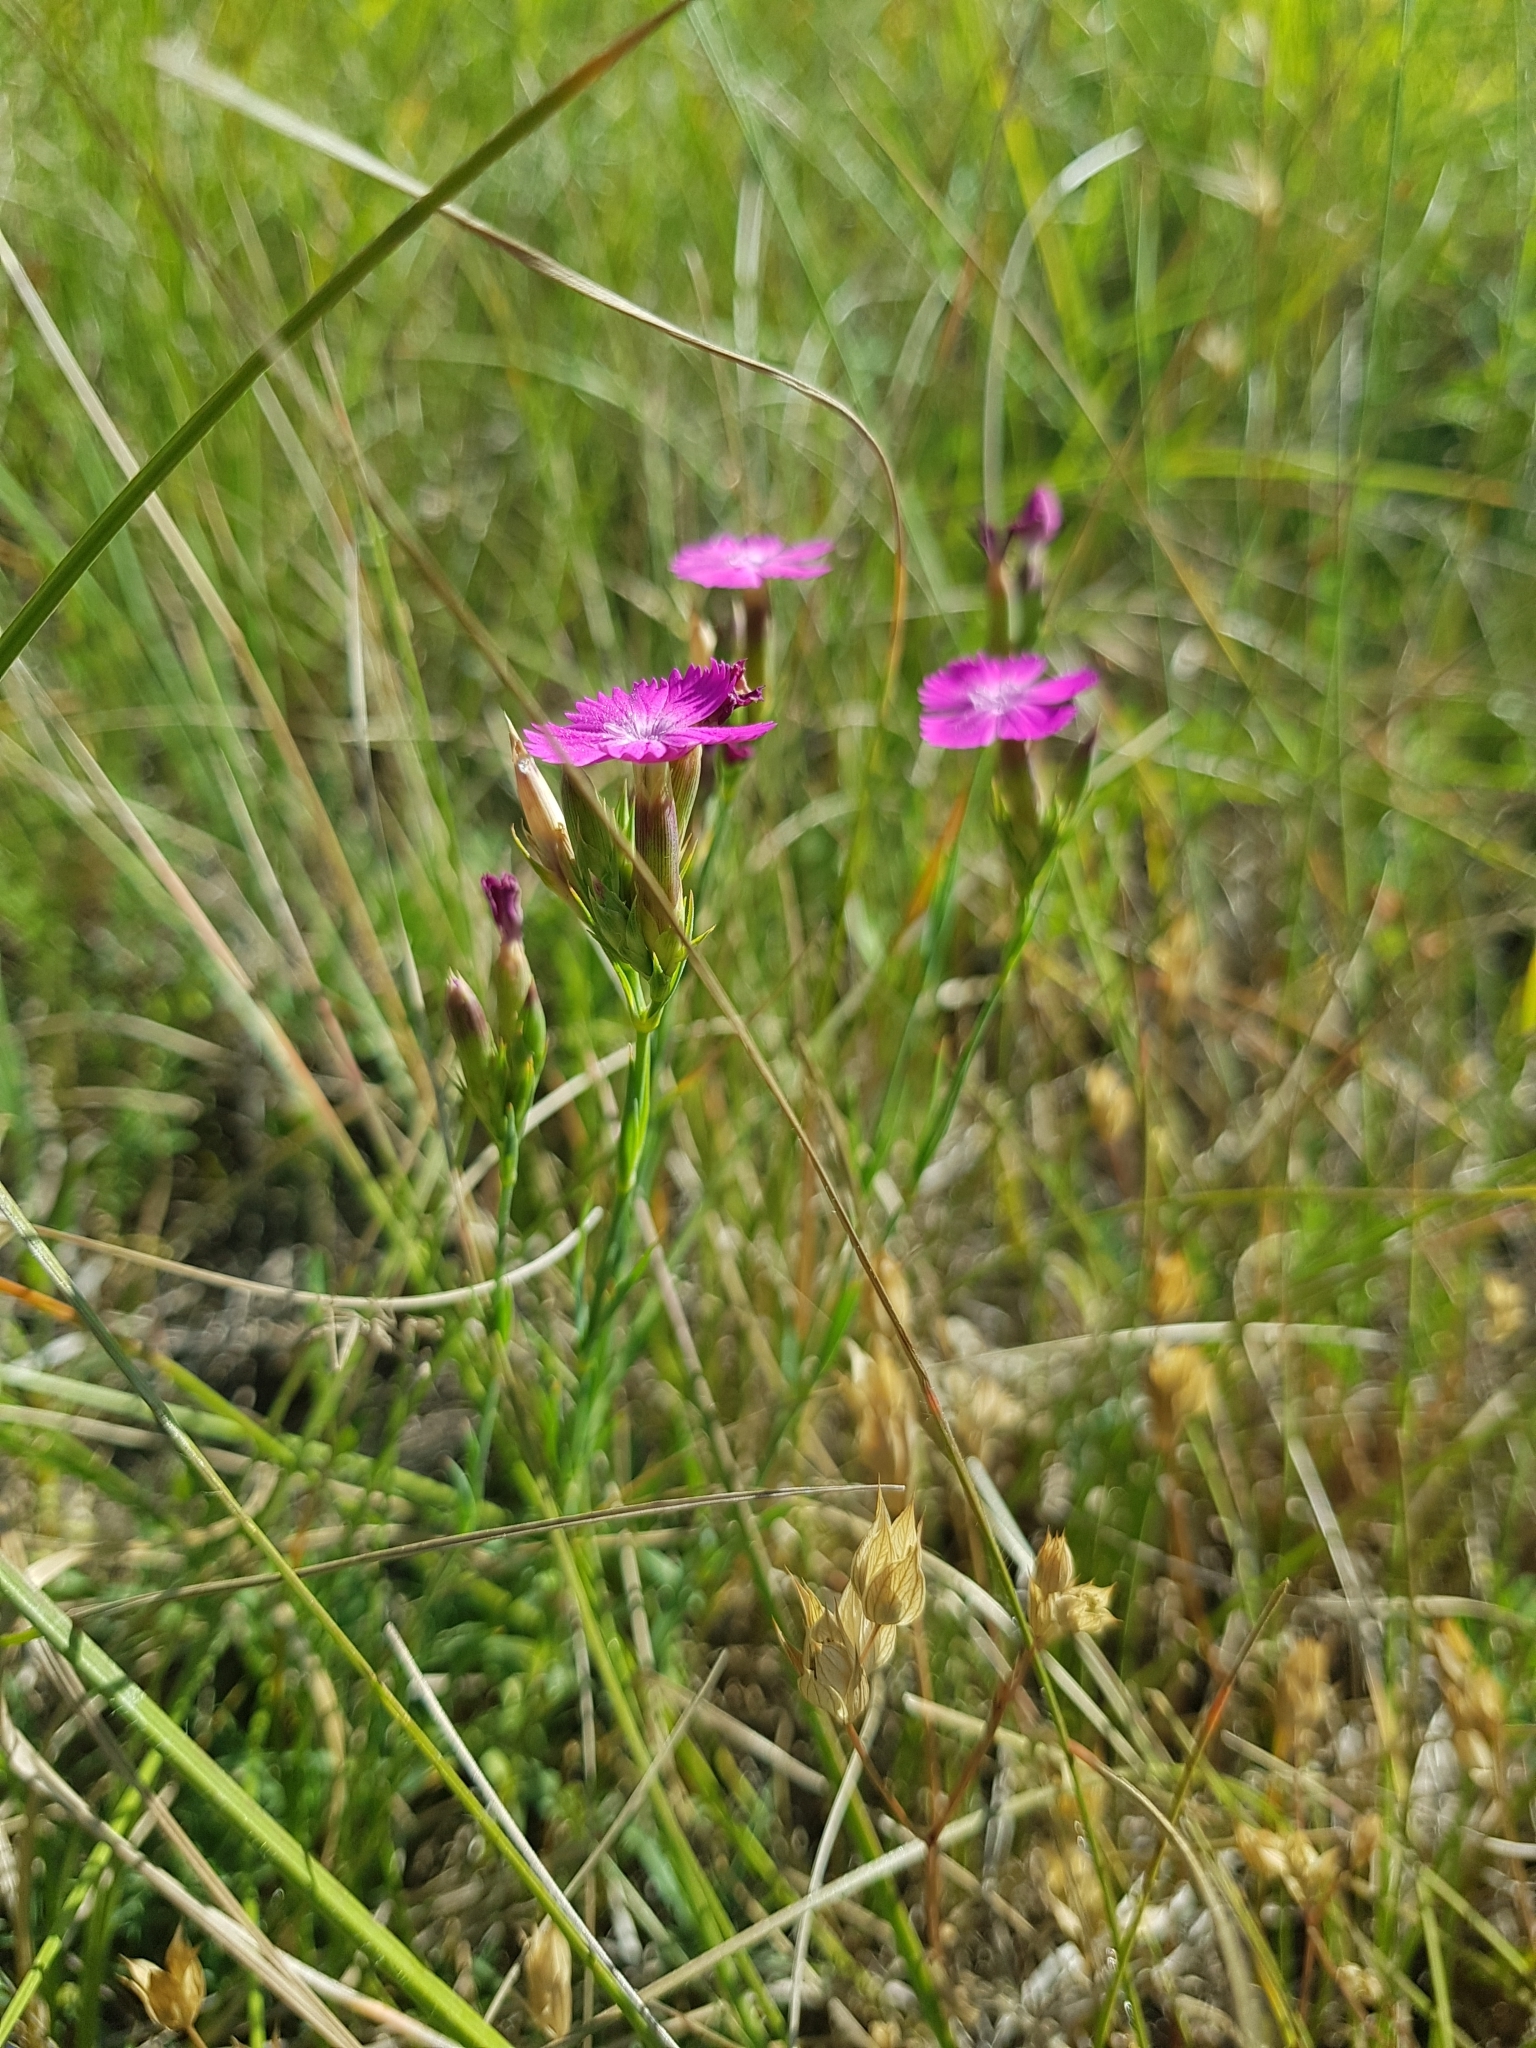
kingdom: Plantae
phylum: Tracheophyta
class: Magnoliopsida
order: Caryophyllales
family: Caryophyllaceae
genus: Dianthus
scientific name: Dianthus scaber
